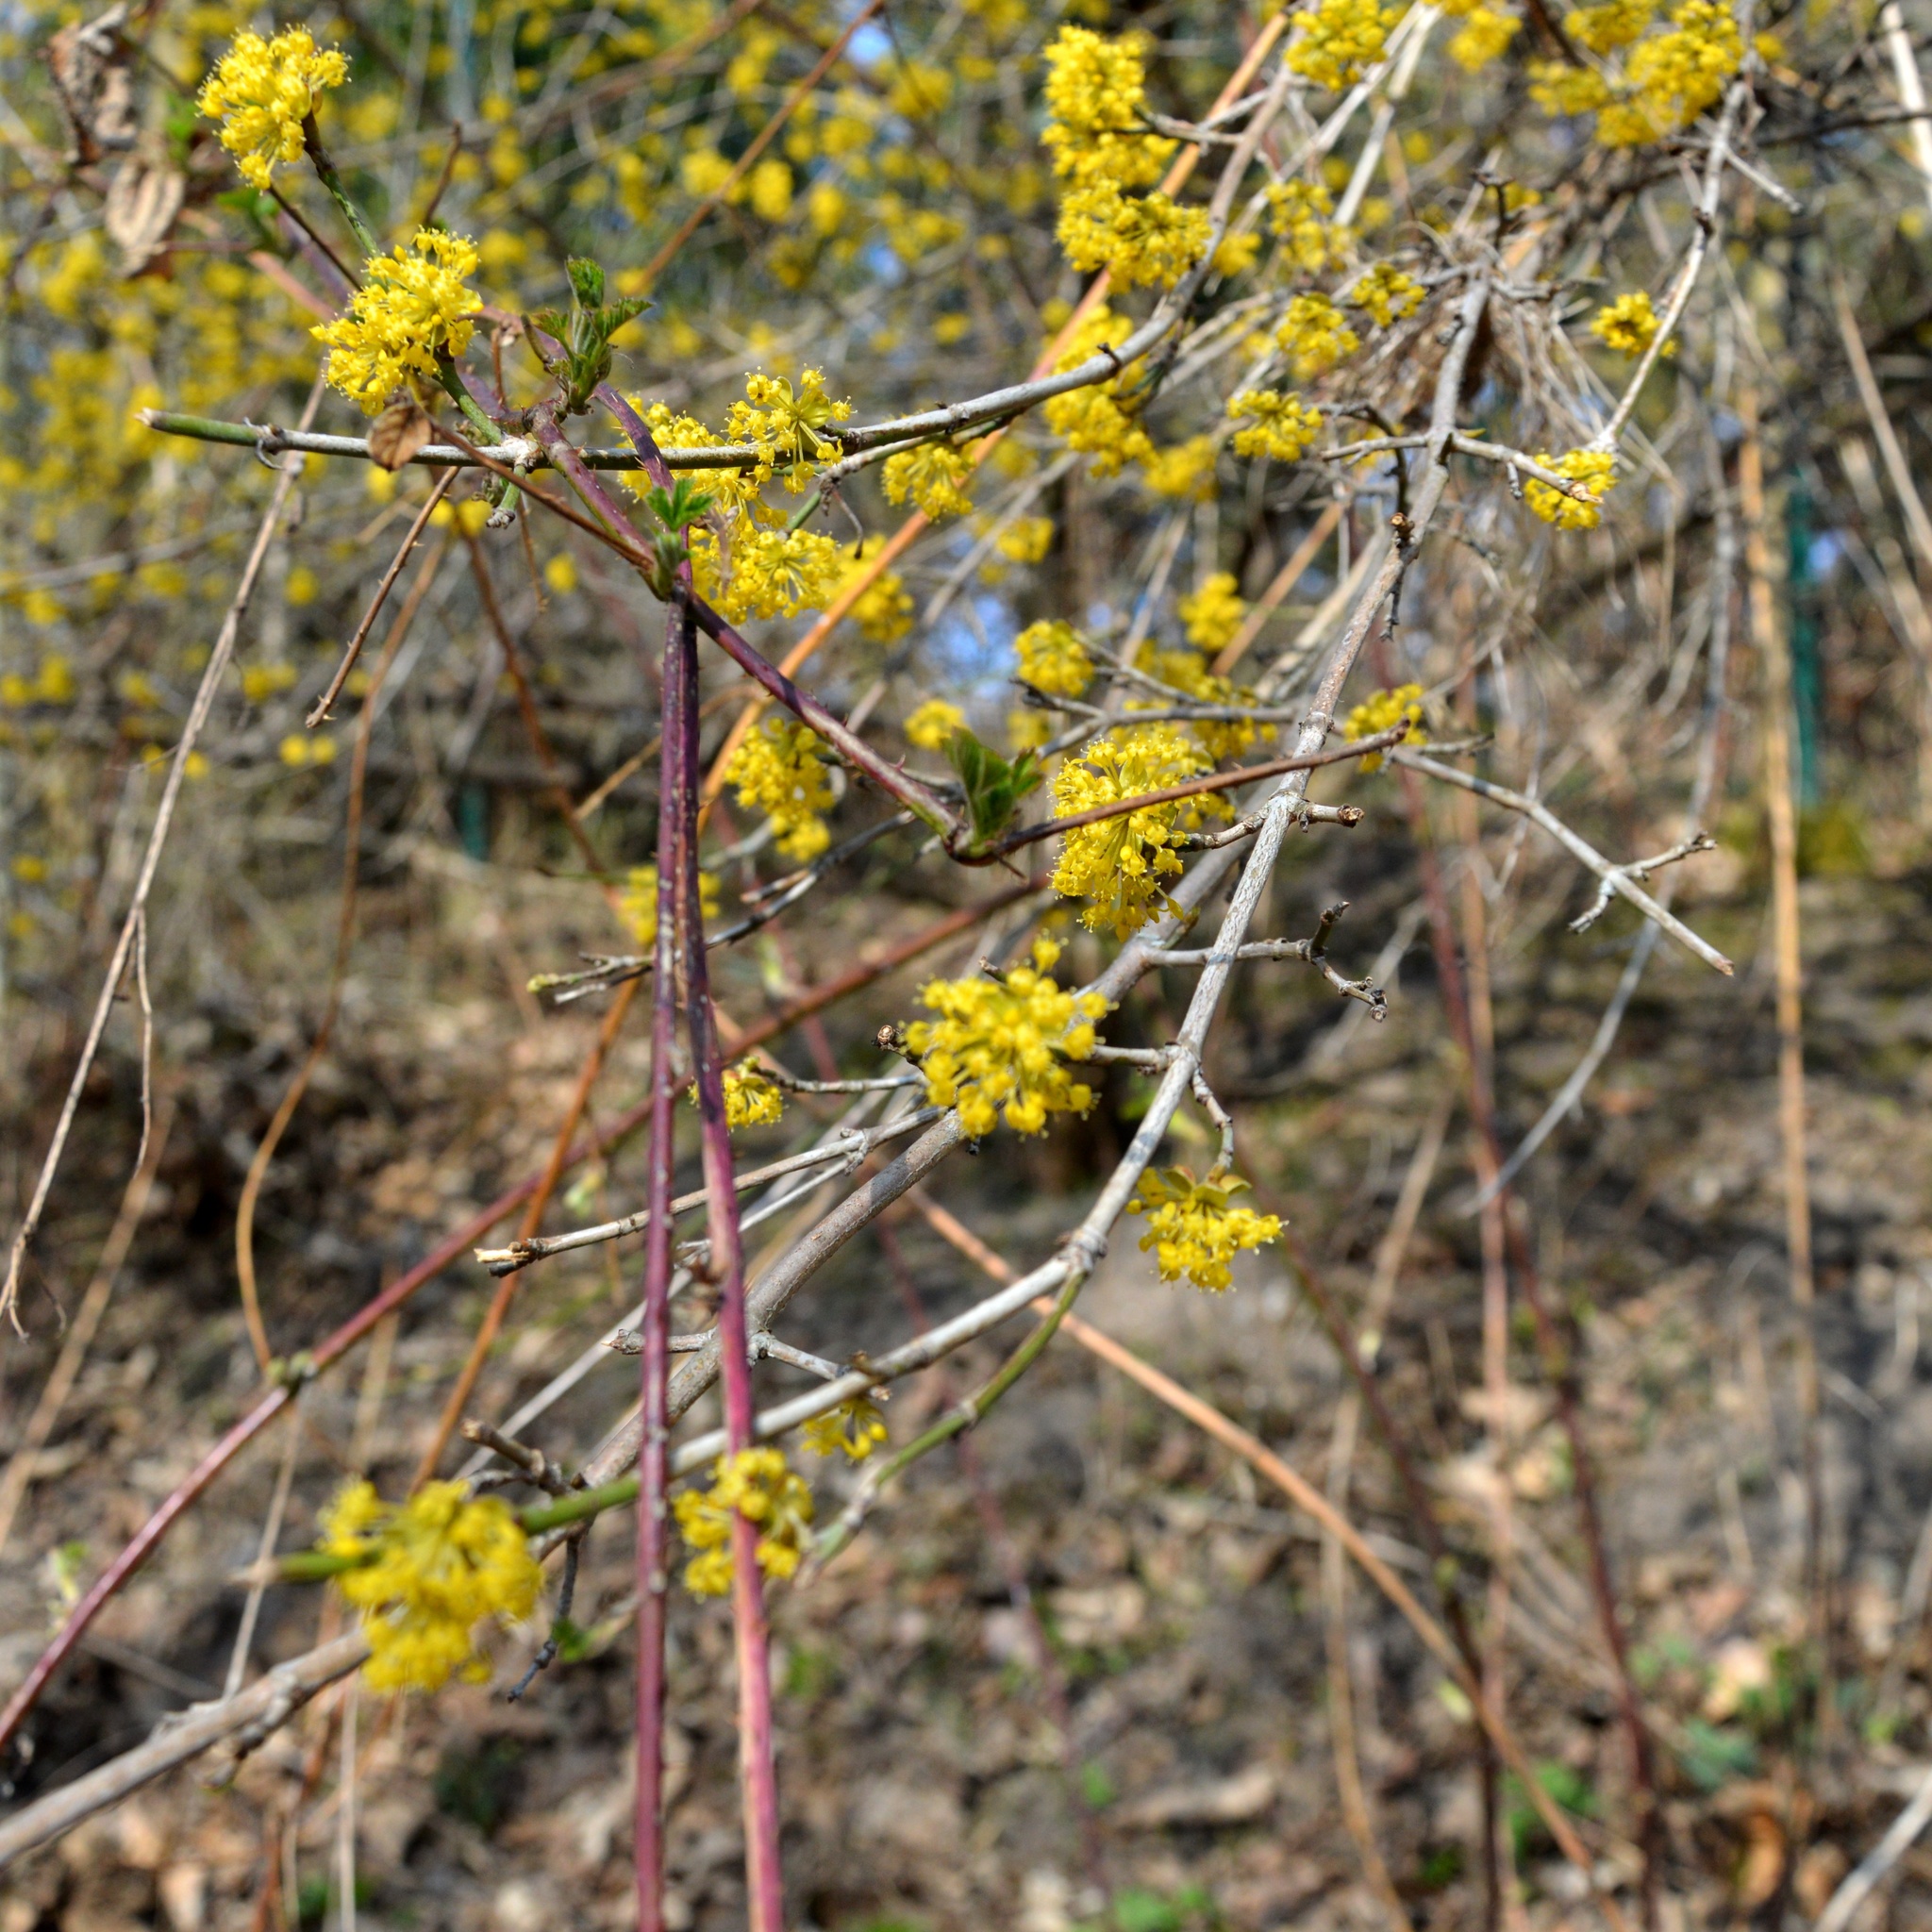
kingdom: Plantae
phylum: Tracheophyta
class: Magnoliopsida
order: Cornales
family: Cornaceae
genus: Cornus
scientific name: Cornus mas
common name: Cornelian-cherry
